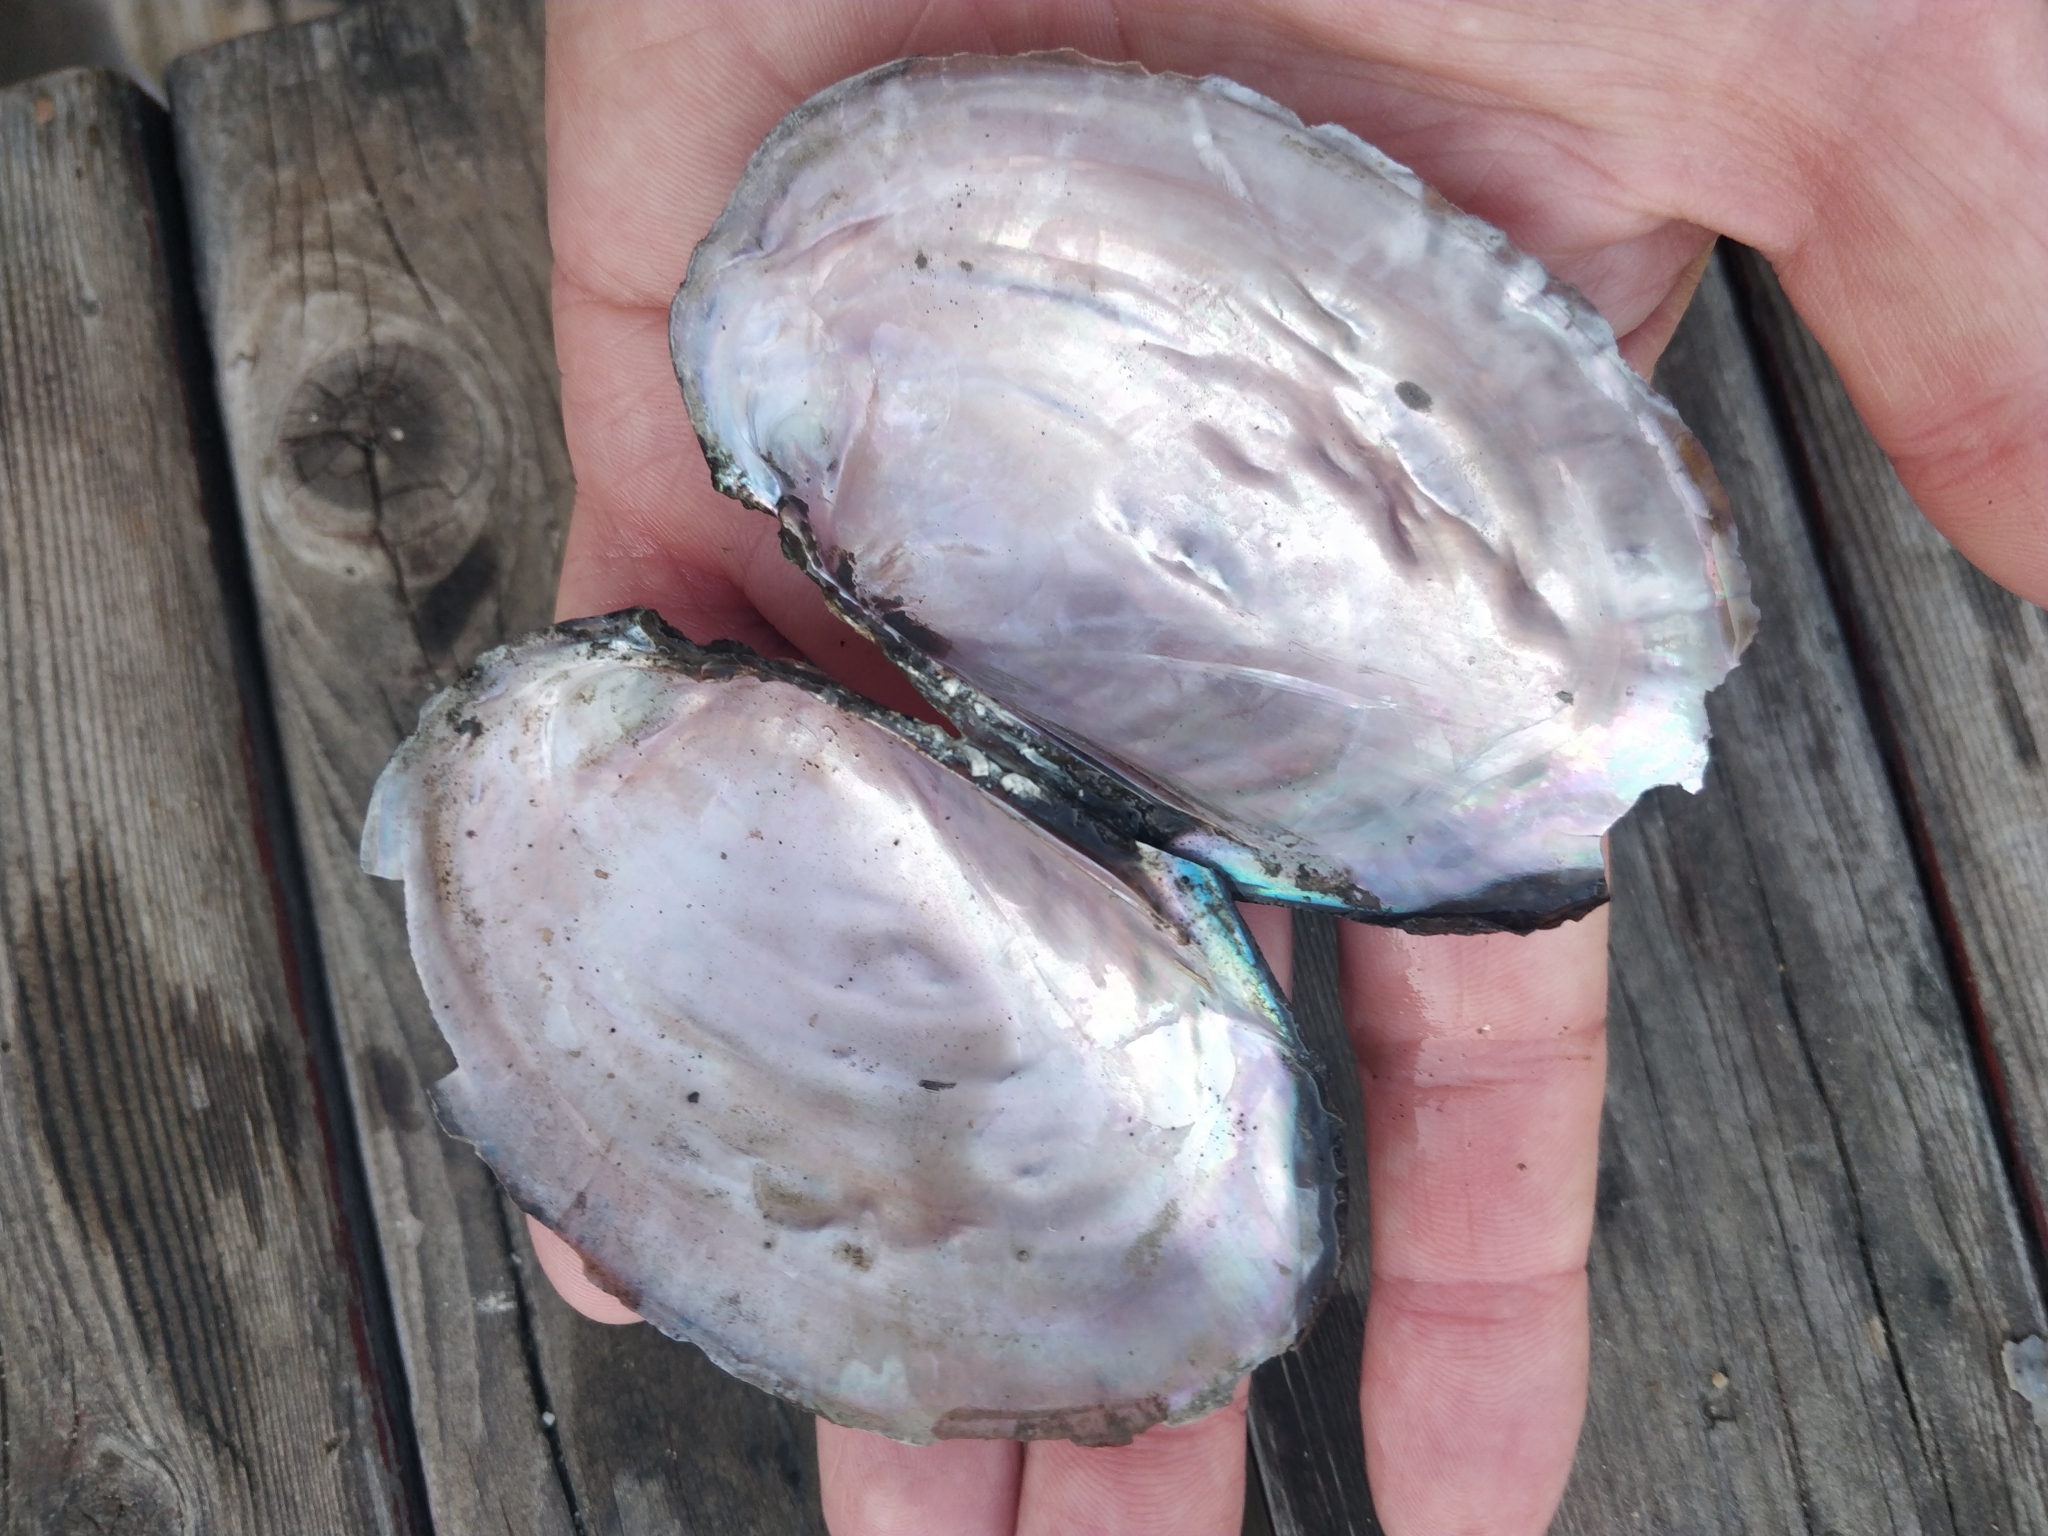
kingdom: Animalia
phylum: Mollusca
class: Bivalvia
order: Unionida
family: Unionidae
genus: Potamilus
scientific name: Potamilus ohiensis
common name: Pink papershell
